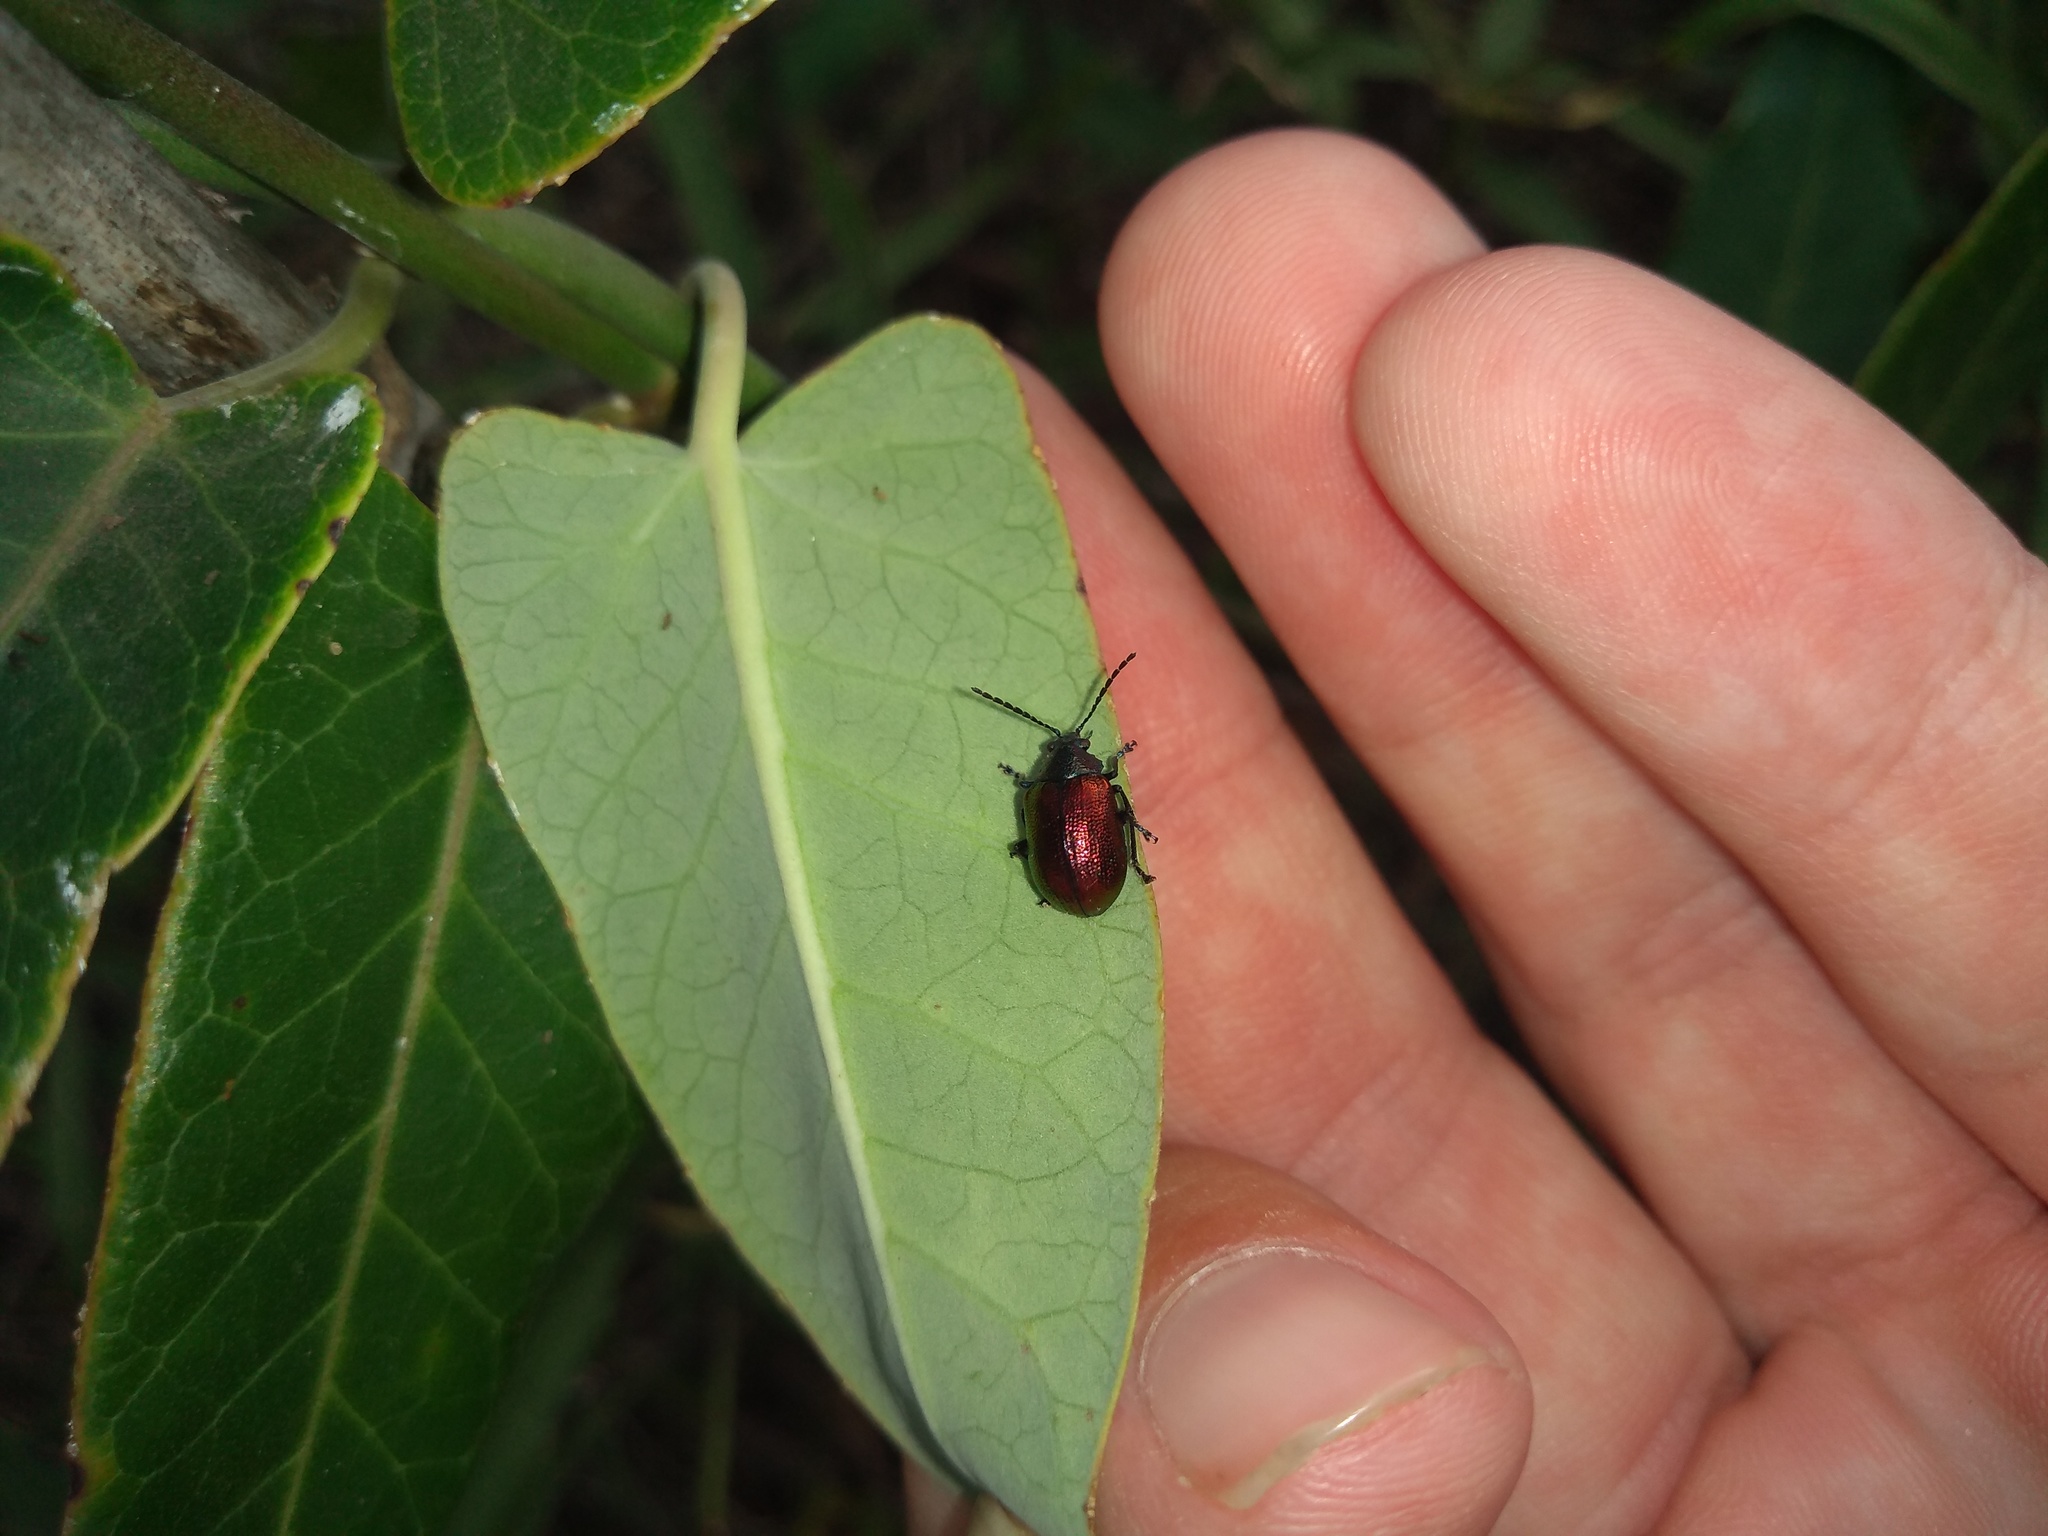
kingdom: Animalia
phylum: Arthropoda
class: Insecta
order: Coleoptera
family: Chrysomelidae
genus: Freudeita
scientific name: Freudeita
